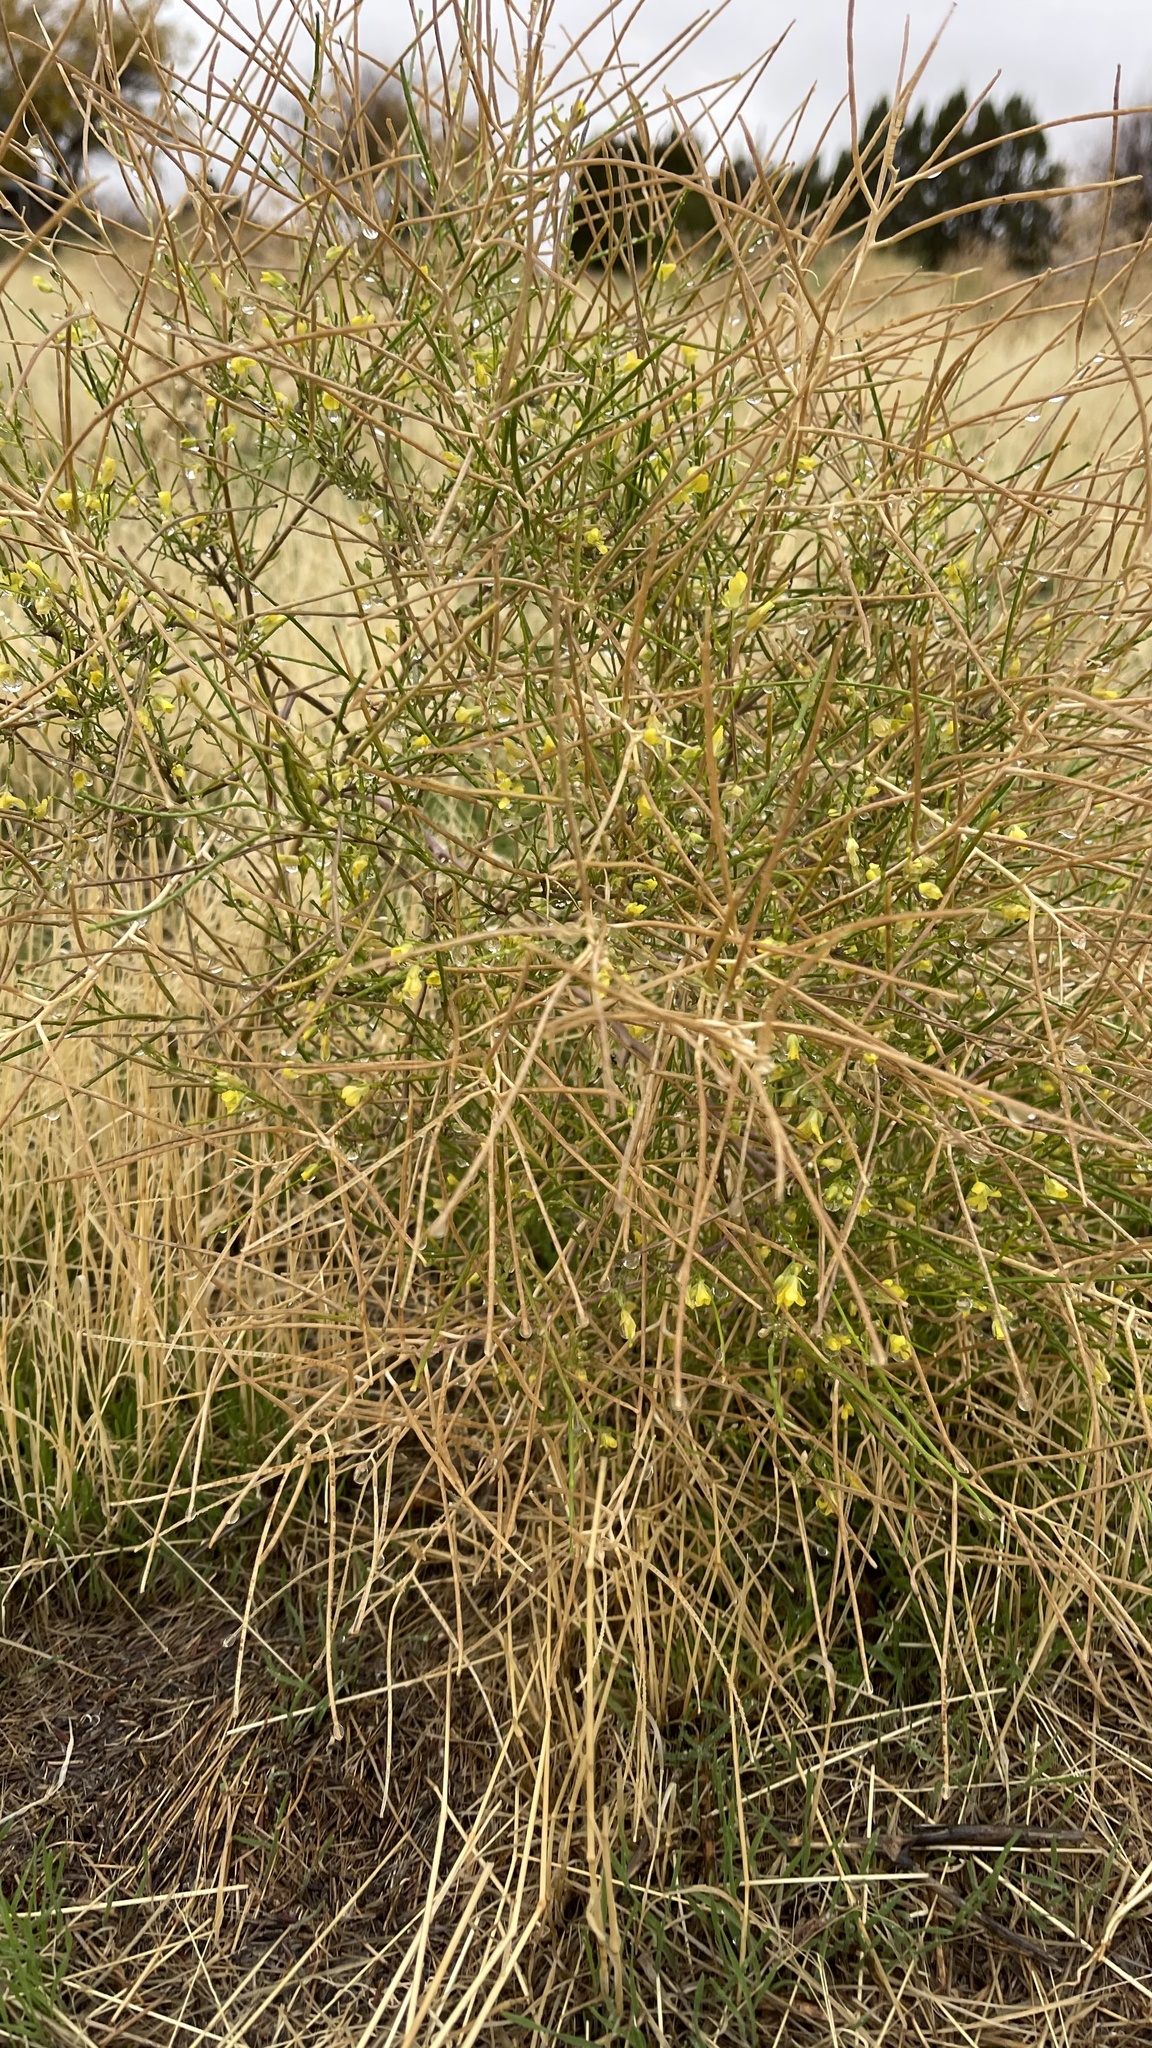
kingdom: Plantae
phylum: Tracheophyta
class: Magnoliopsida
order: Brassicales
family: Brassicaceae
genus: Sisymbrium
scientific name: Sisymbrium altissimum
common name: Tall rocket
